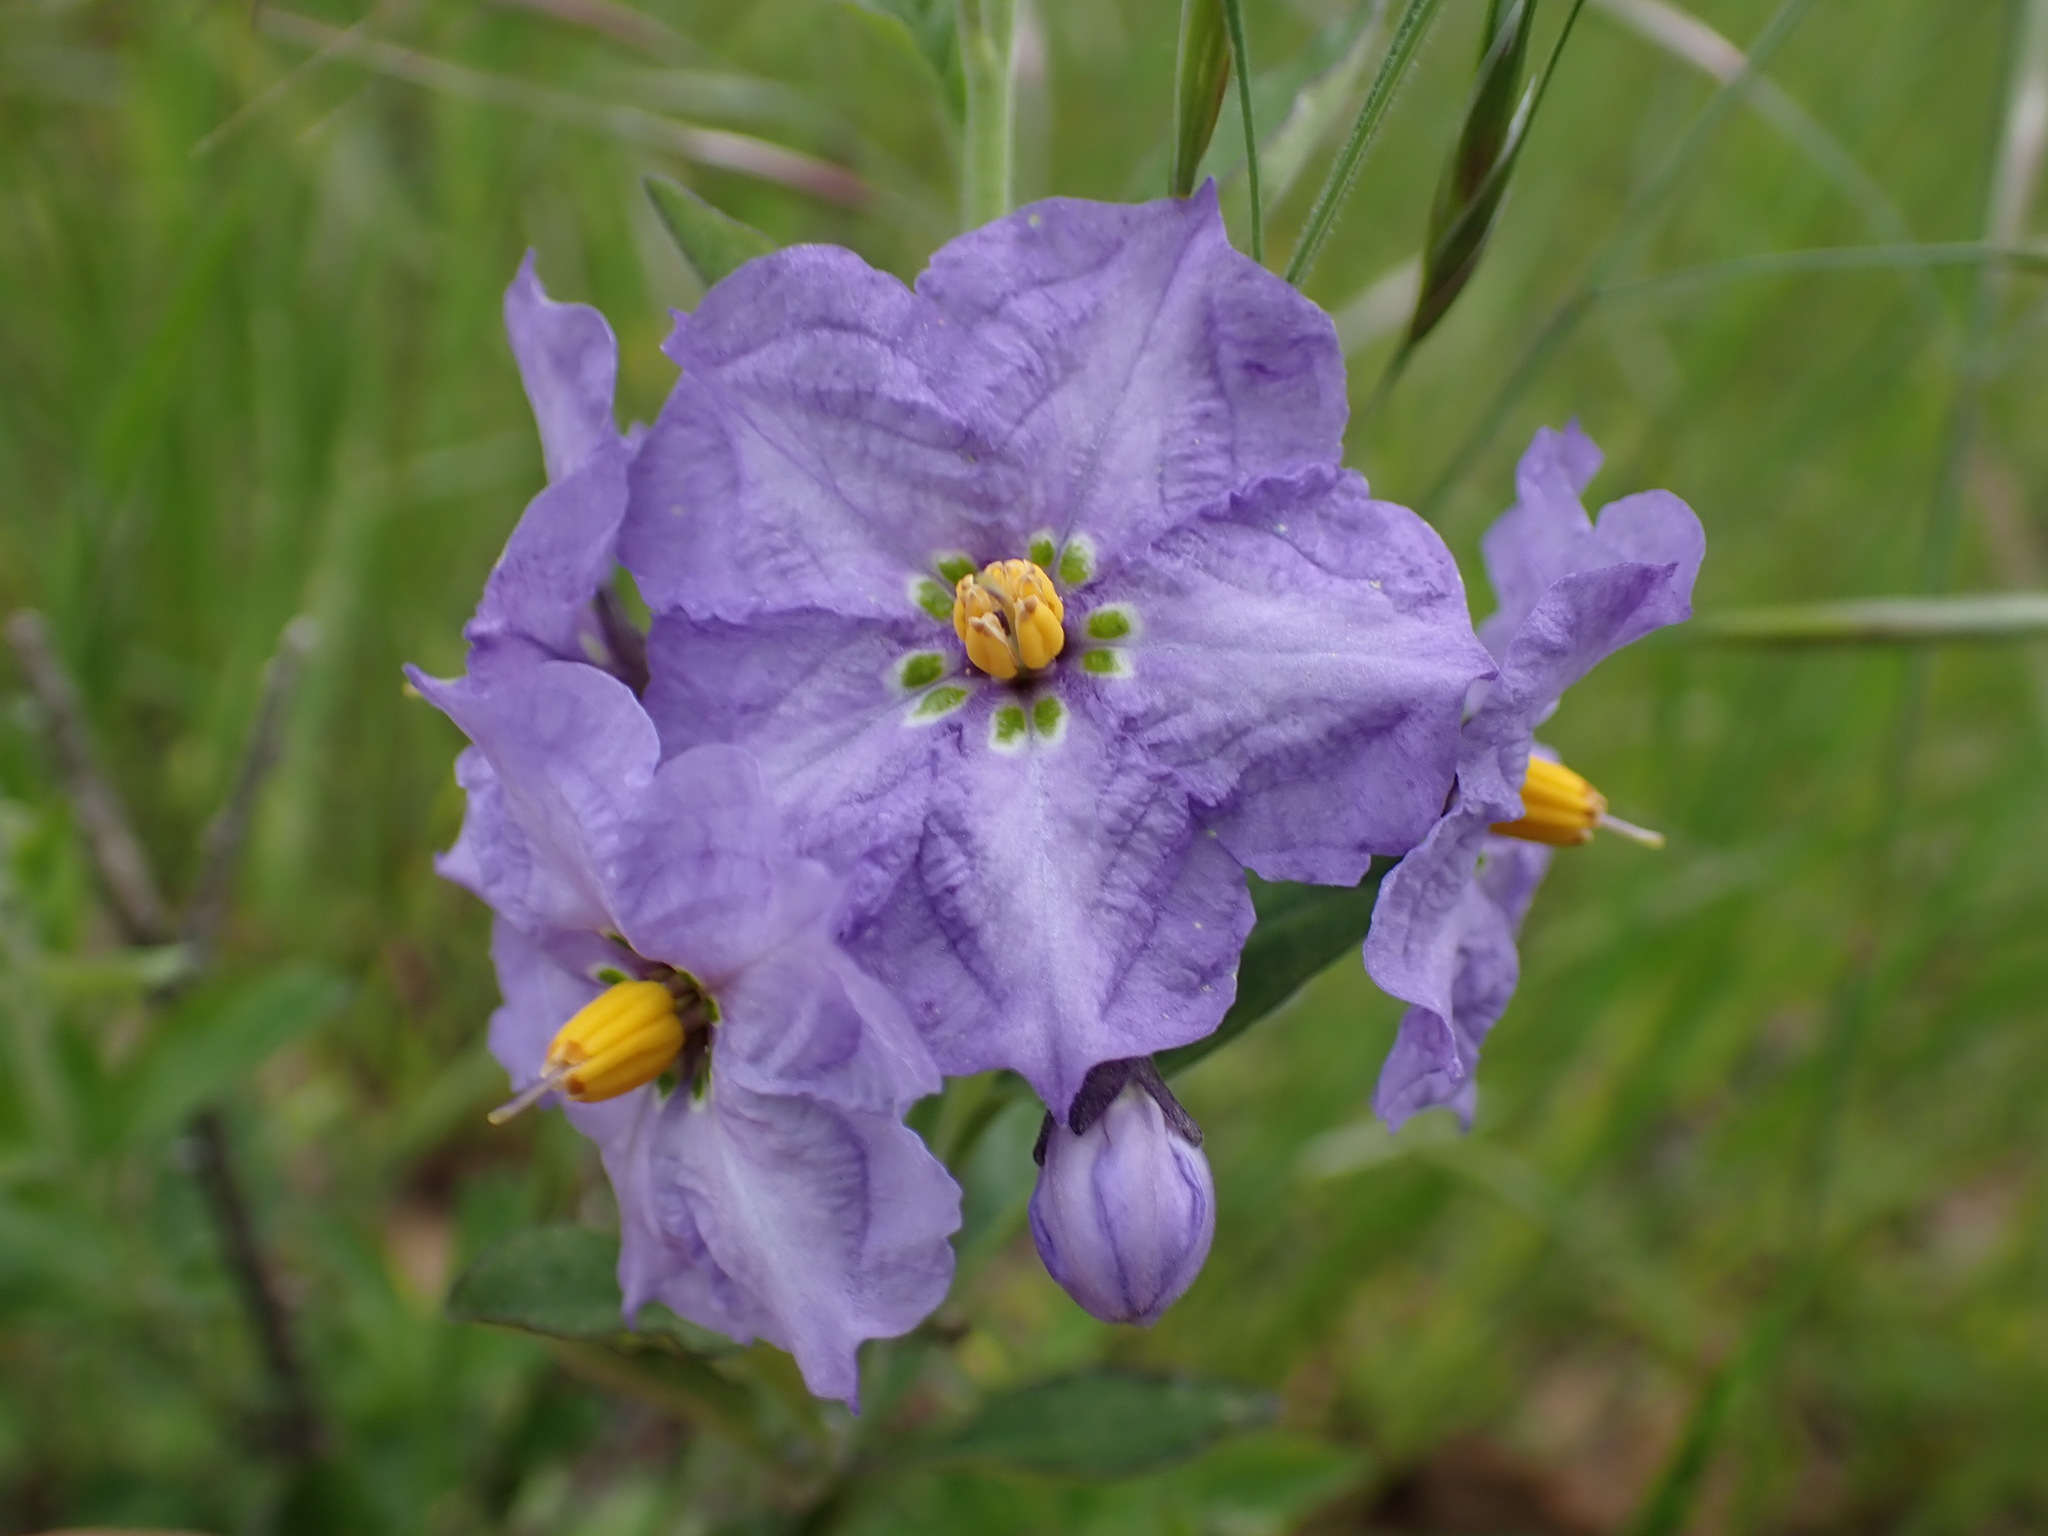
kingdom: Plantae
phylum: Tracheophyta
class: Magnoliopsida
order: Solanales
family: Solanaceae
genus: Solanum
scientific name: Solanum umbelliferum
